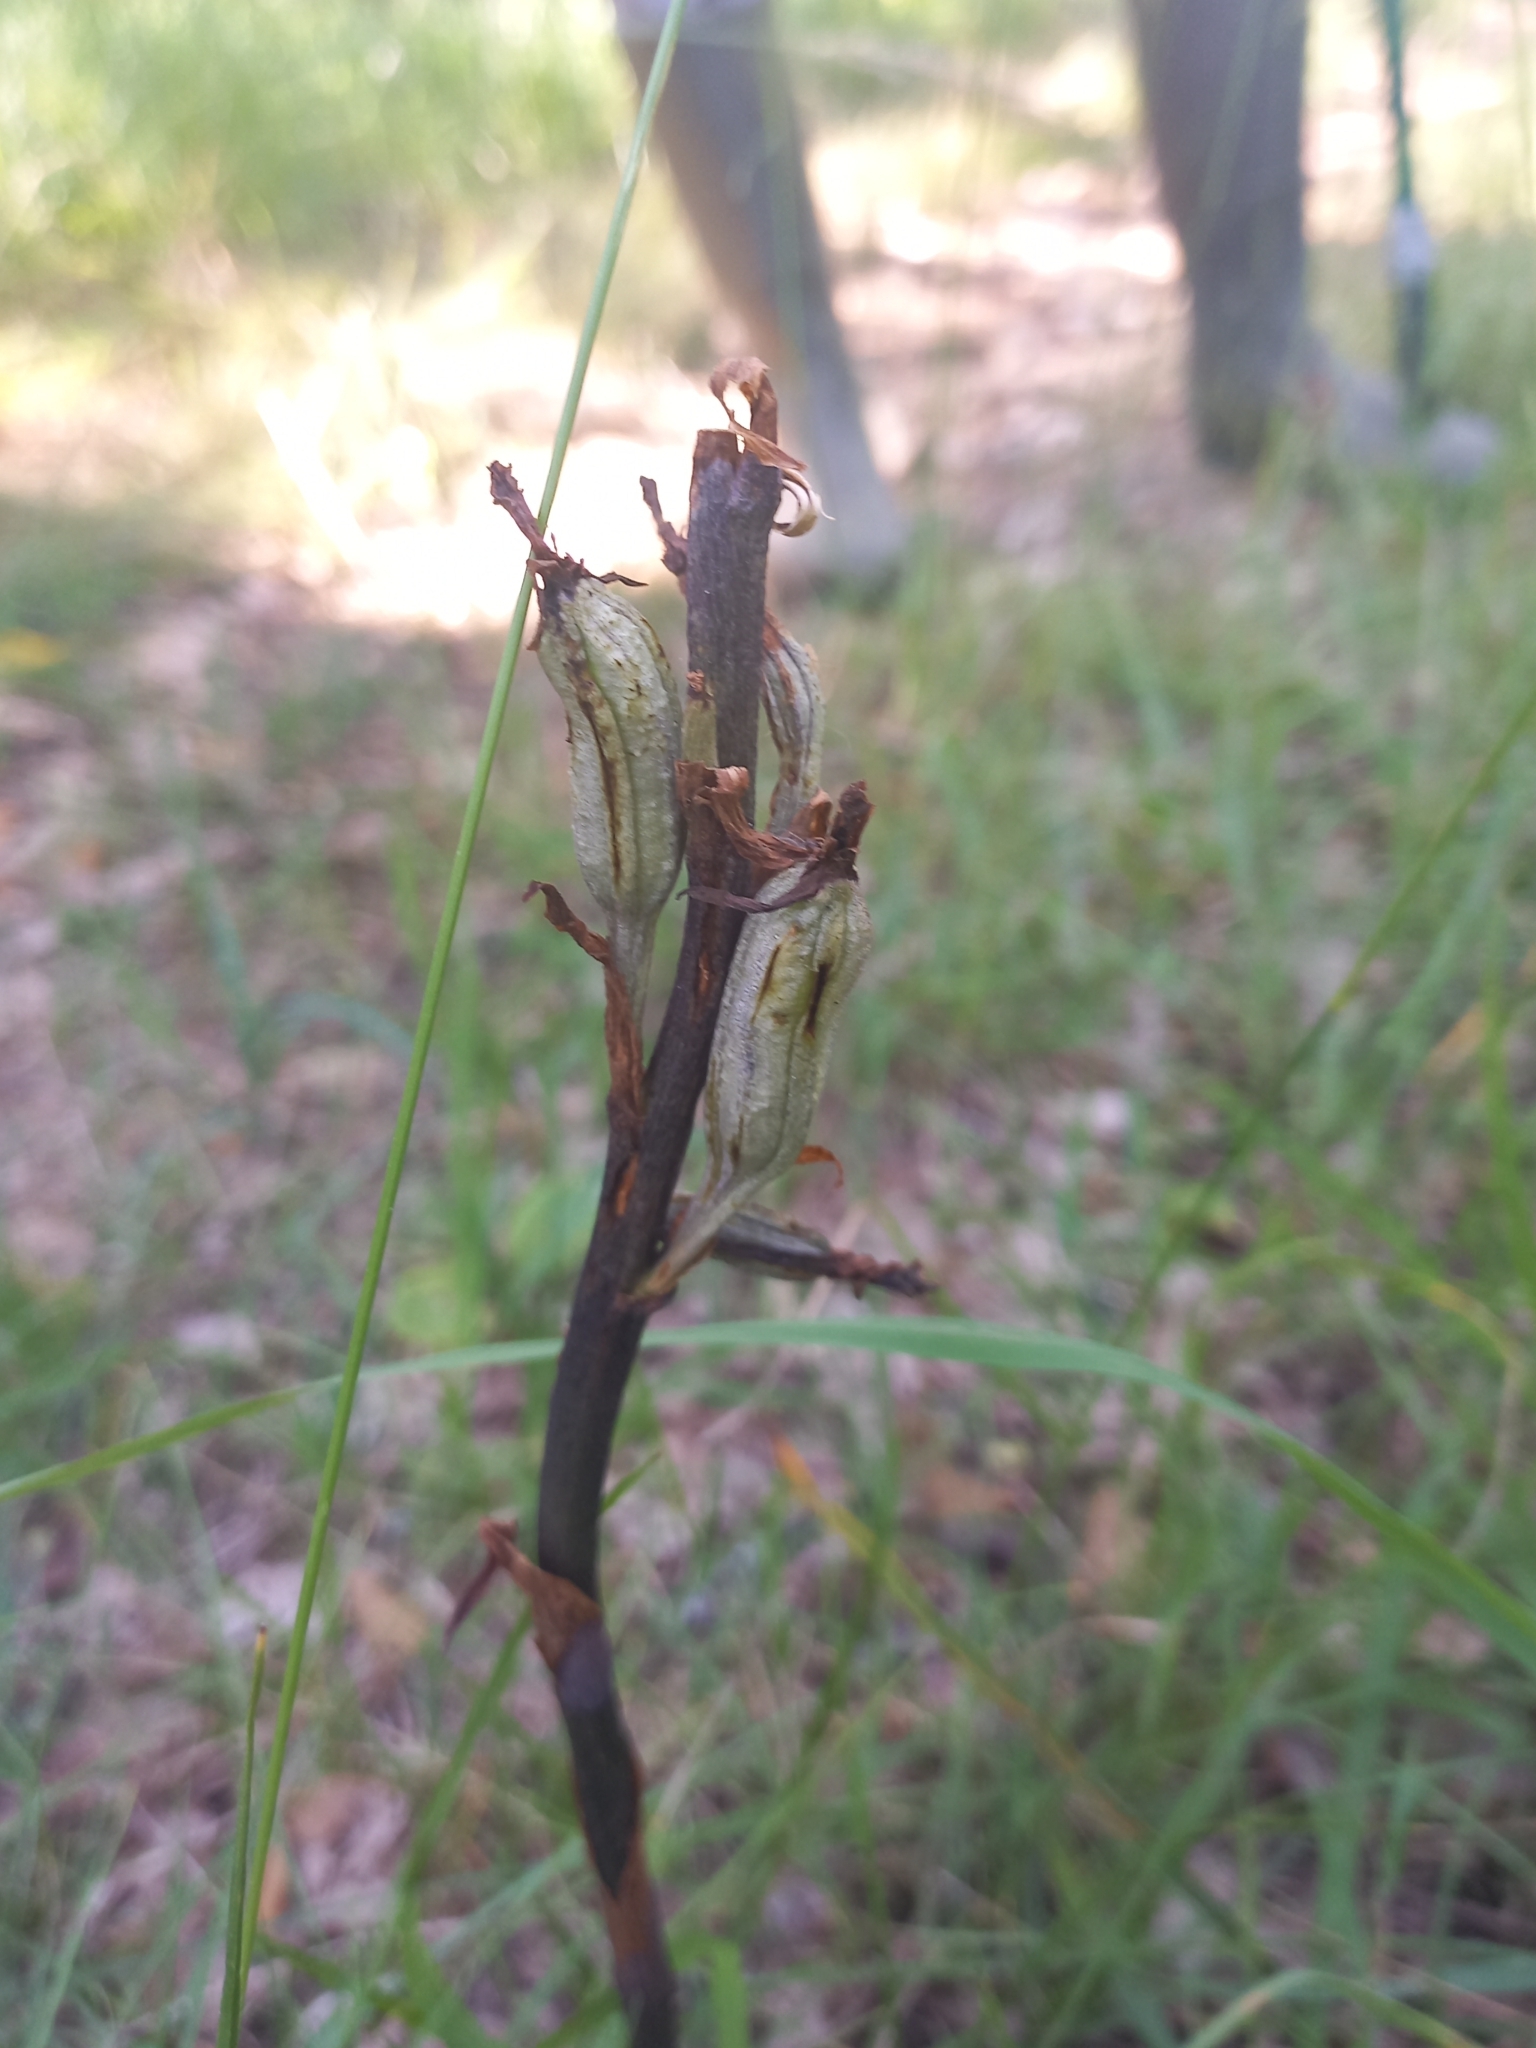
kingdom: Plantae
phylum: Tracheophyta
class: Liliopsida
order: Asparagales
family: Orchidaceae
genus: Limodorum
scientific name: Limodorum abortivum
